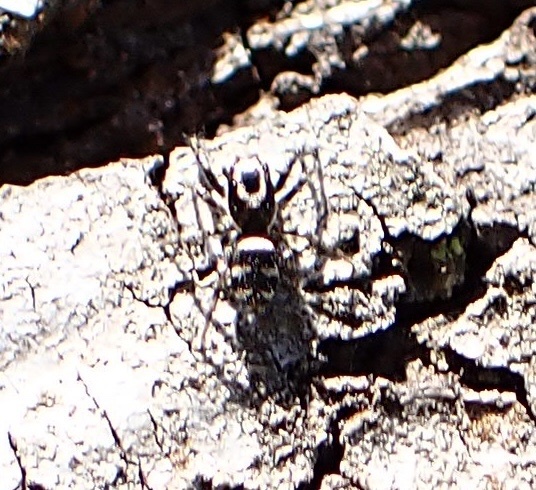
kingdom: Animalia
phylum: Arthropoda
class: Arachnida
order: Araneae
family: Salticidae
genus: Salticus
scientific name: Salticus scenicus
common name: Zebra jumper
